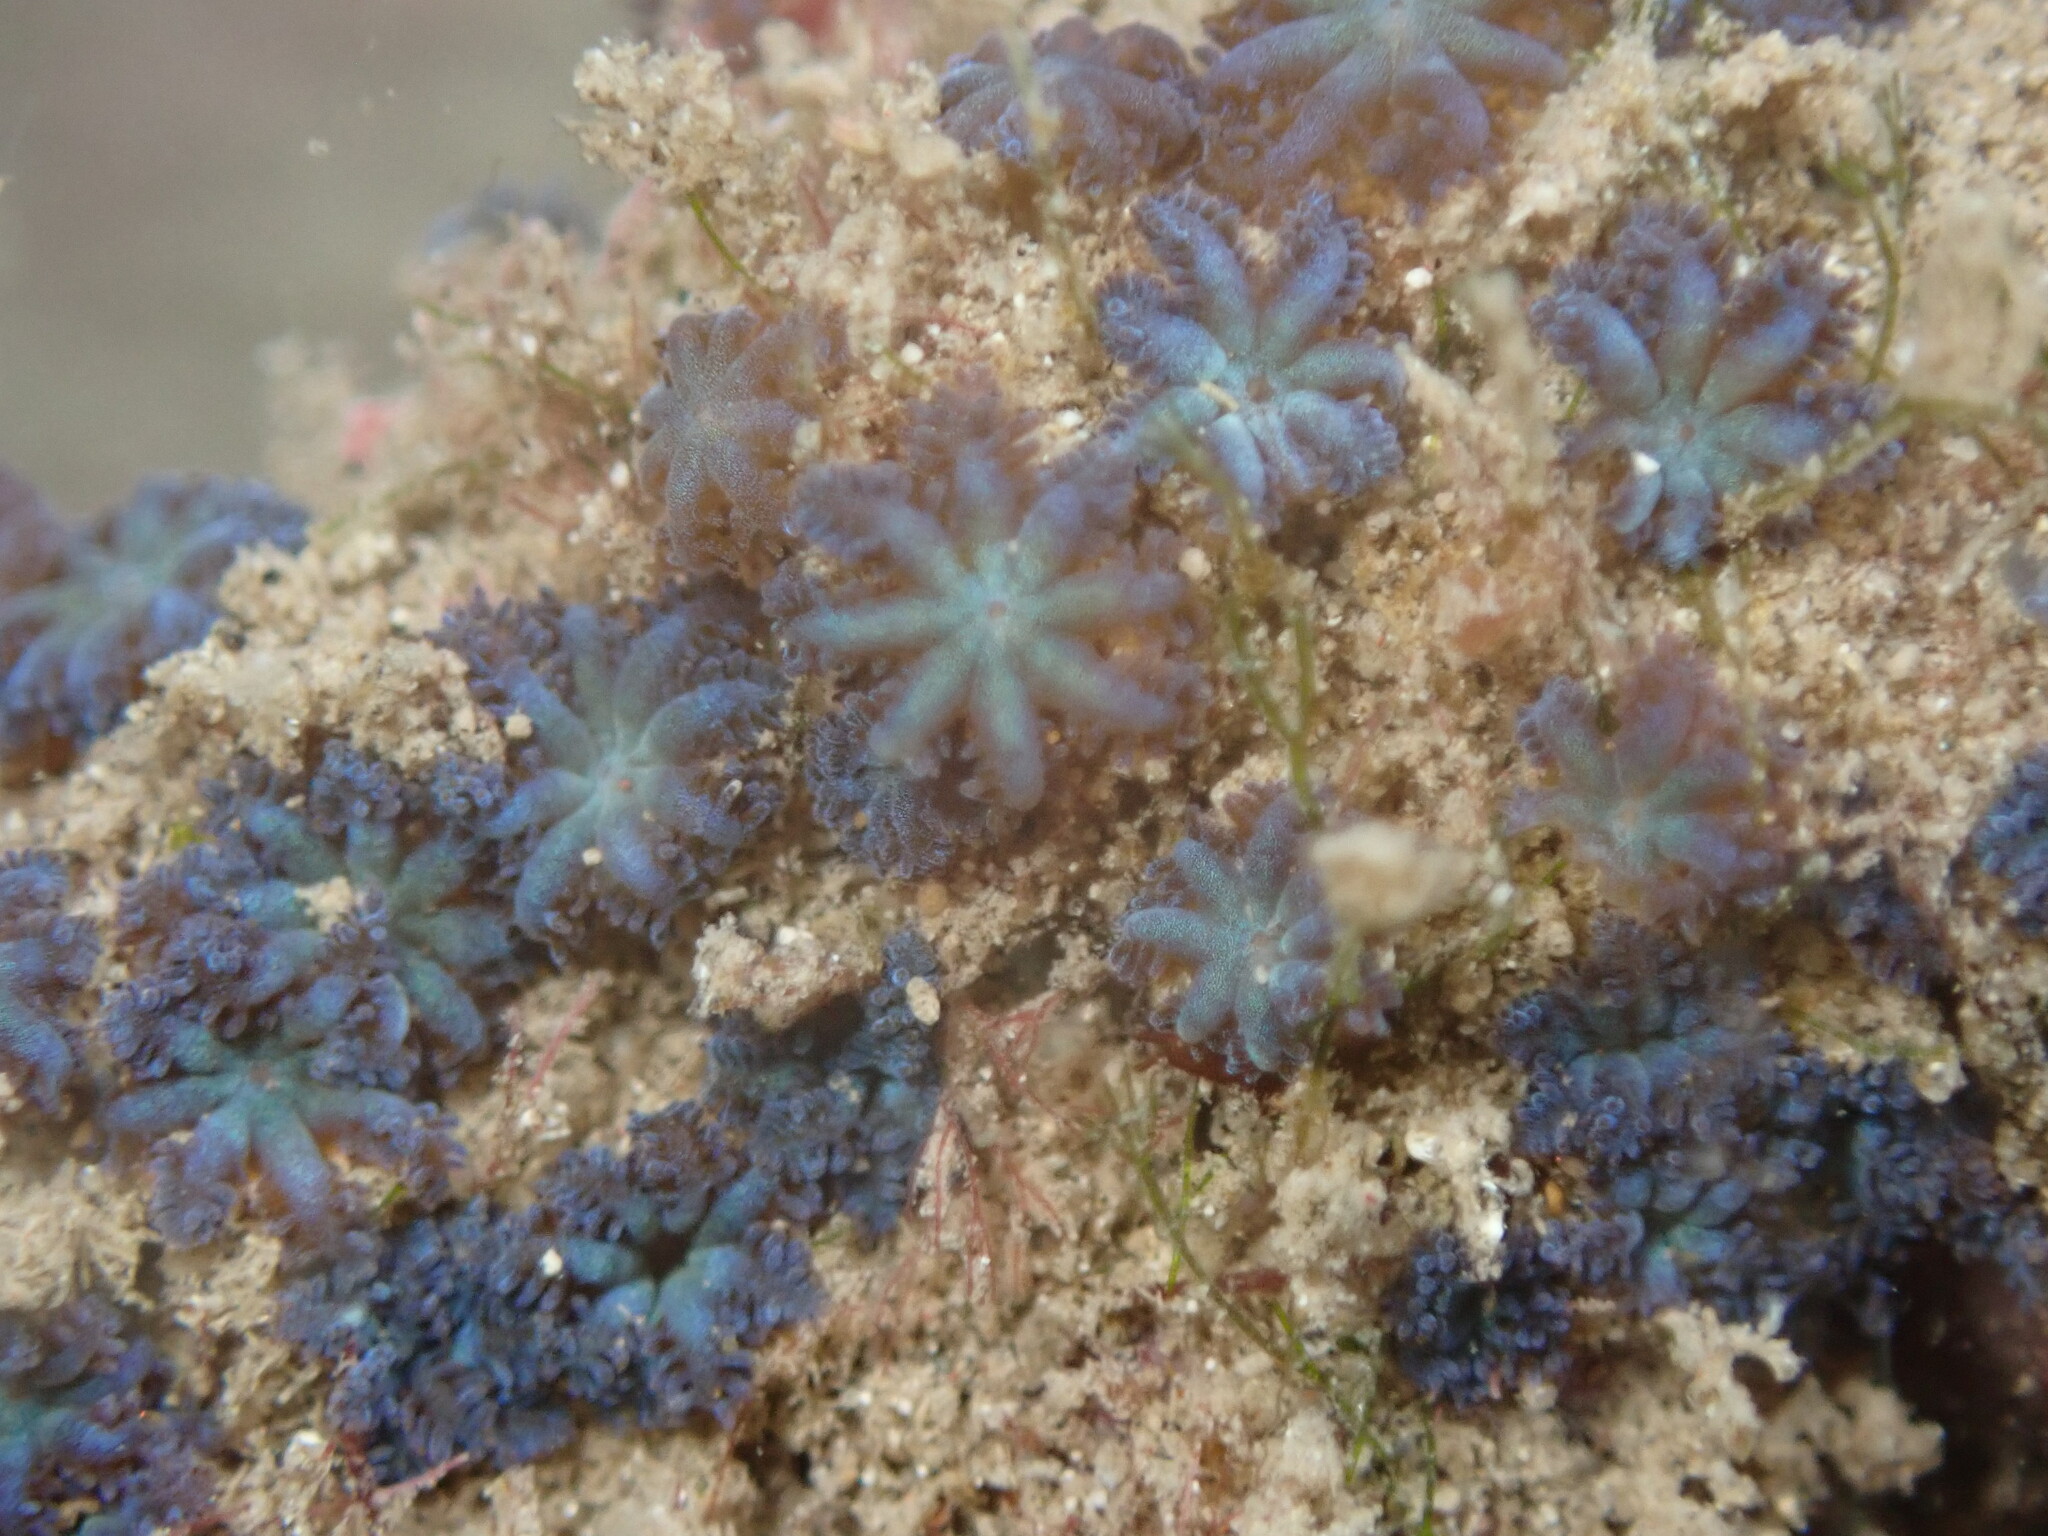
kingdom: Animalia
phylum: Cnidaria
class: Anthozoa
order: Malacalcyonacea
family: Xeniidae
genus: Sarcothelia
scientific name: Sarcothelia edmondsoni
